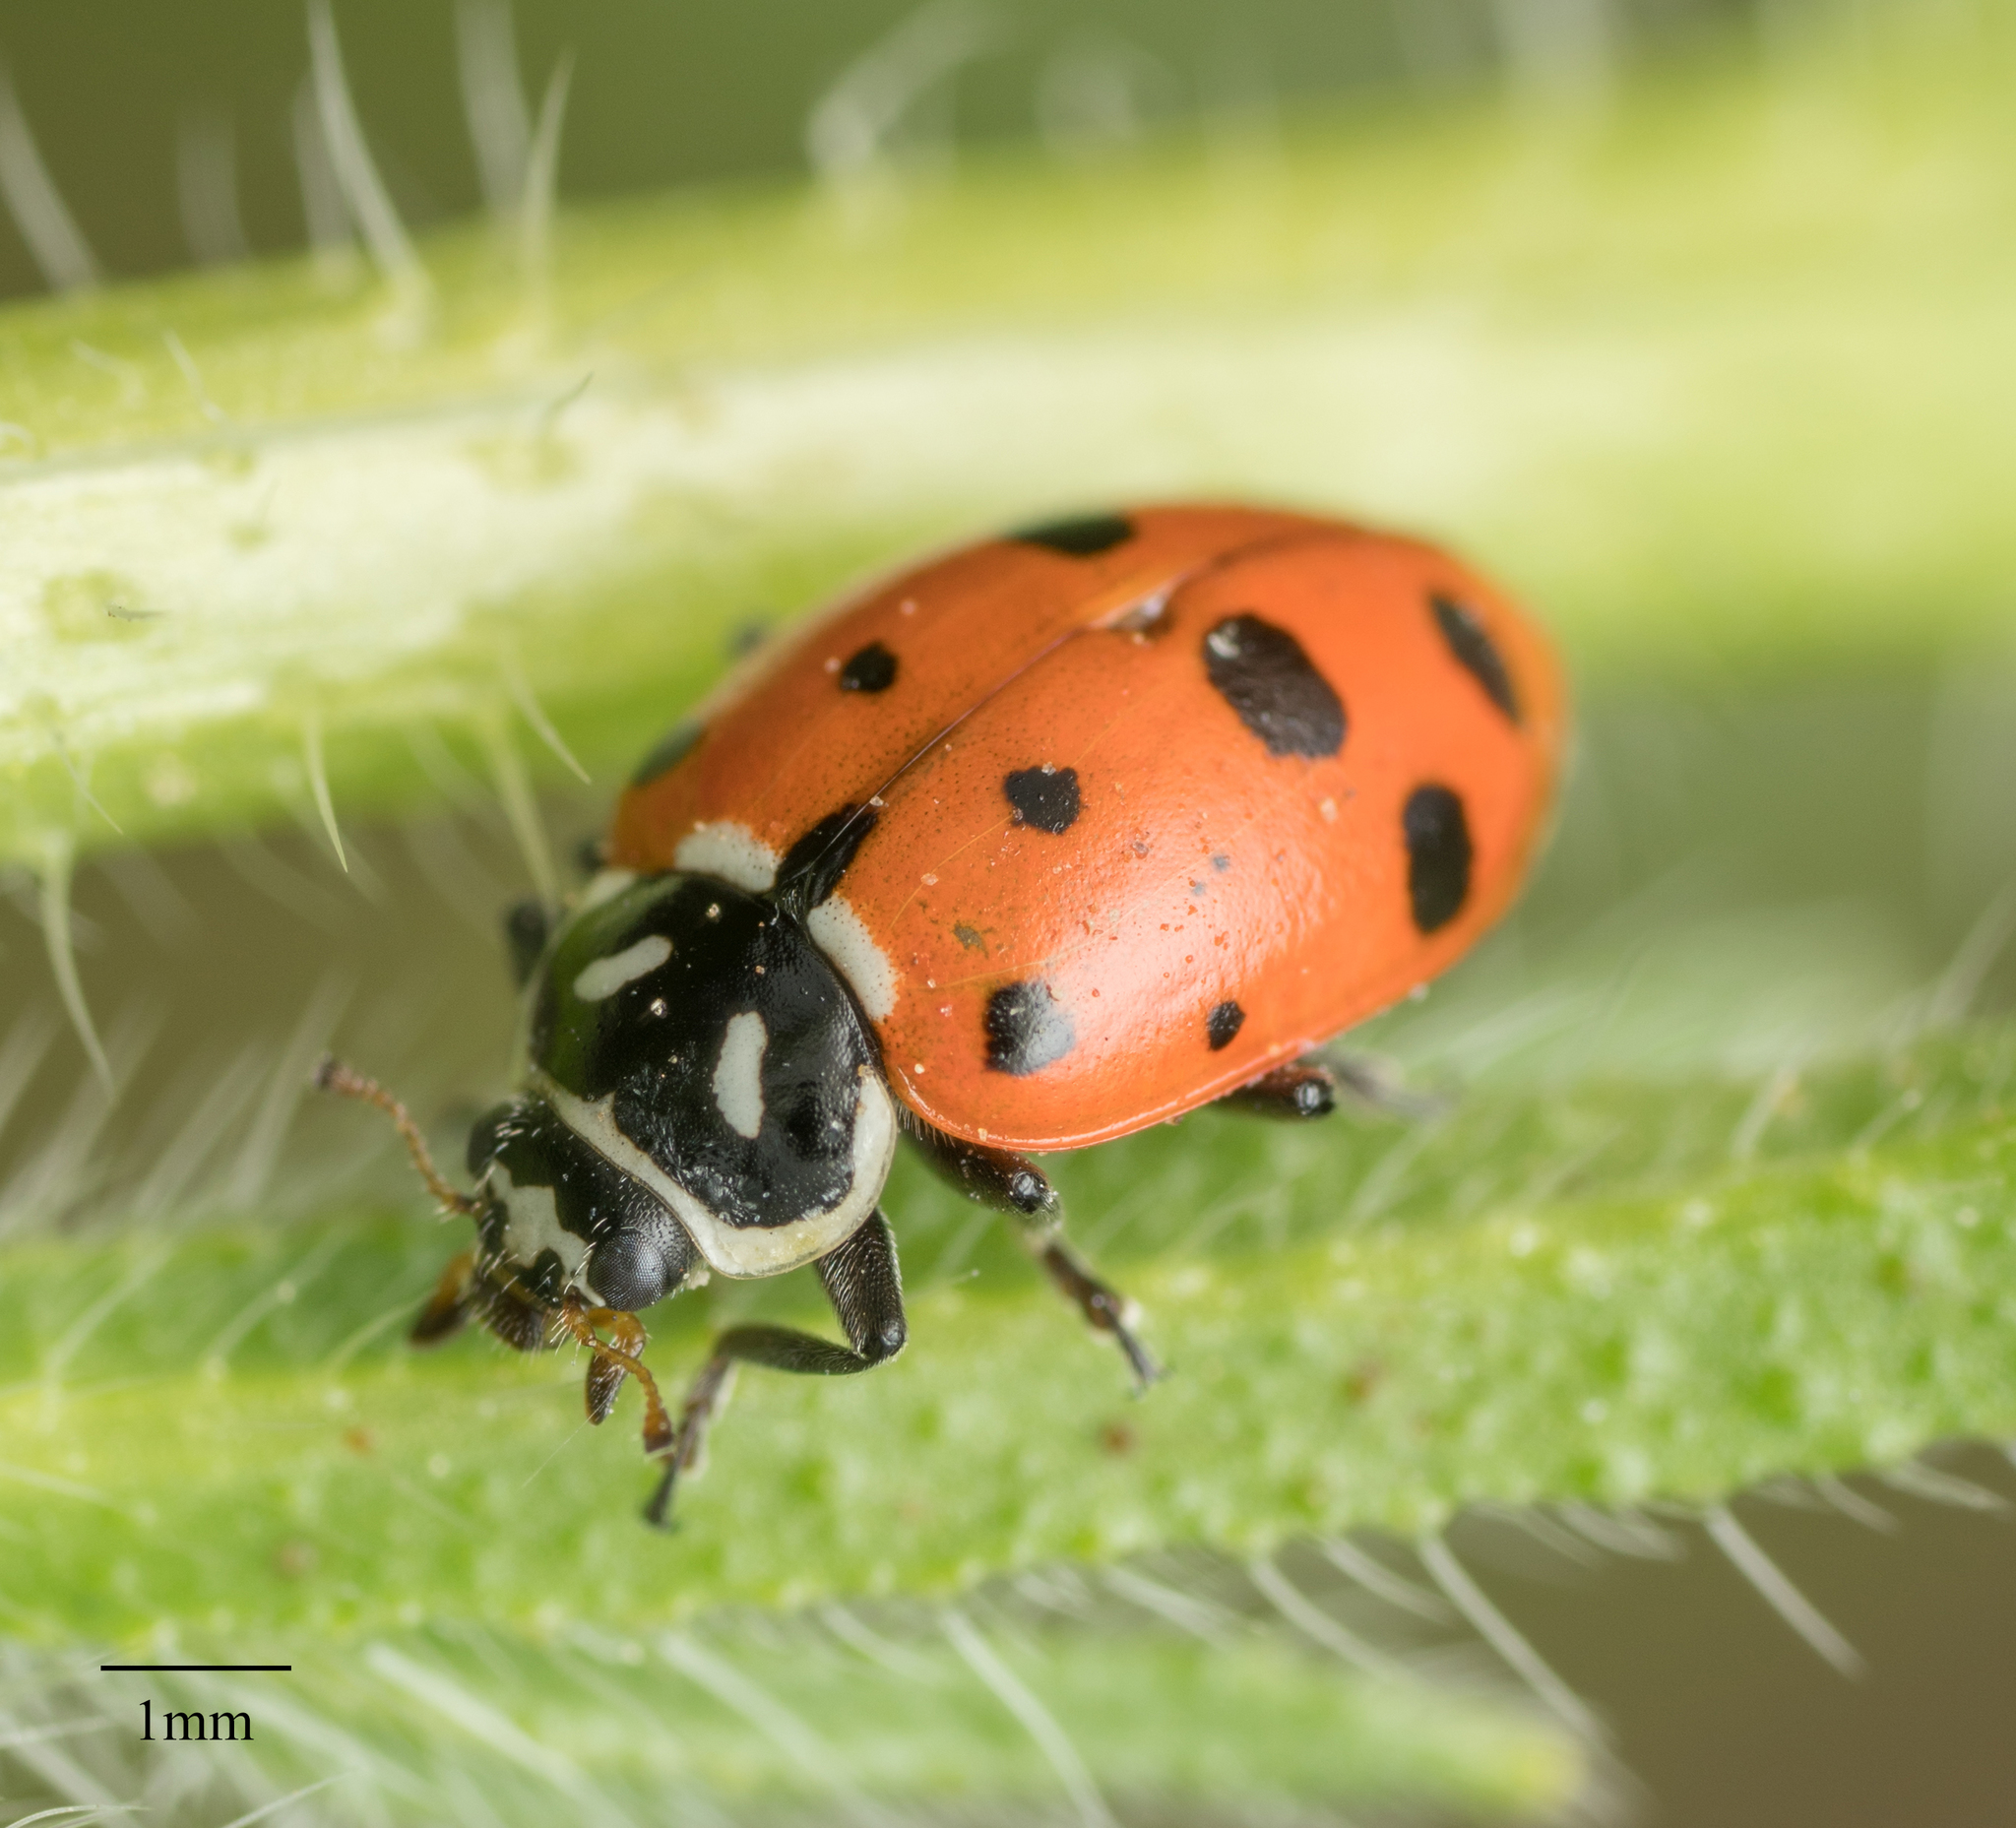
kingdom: Animalia
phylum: Arthropoda
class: Insecta
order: Coleoptera
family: Coccinellidae
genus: Hippodamia
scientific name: Hippodamia convergens
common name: Convergent lady beetle
